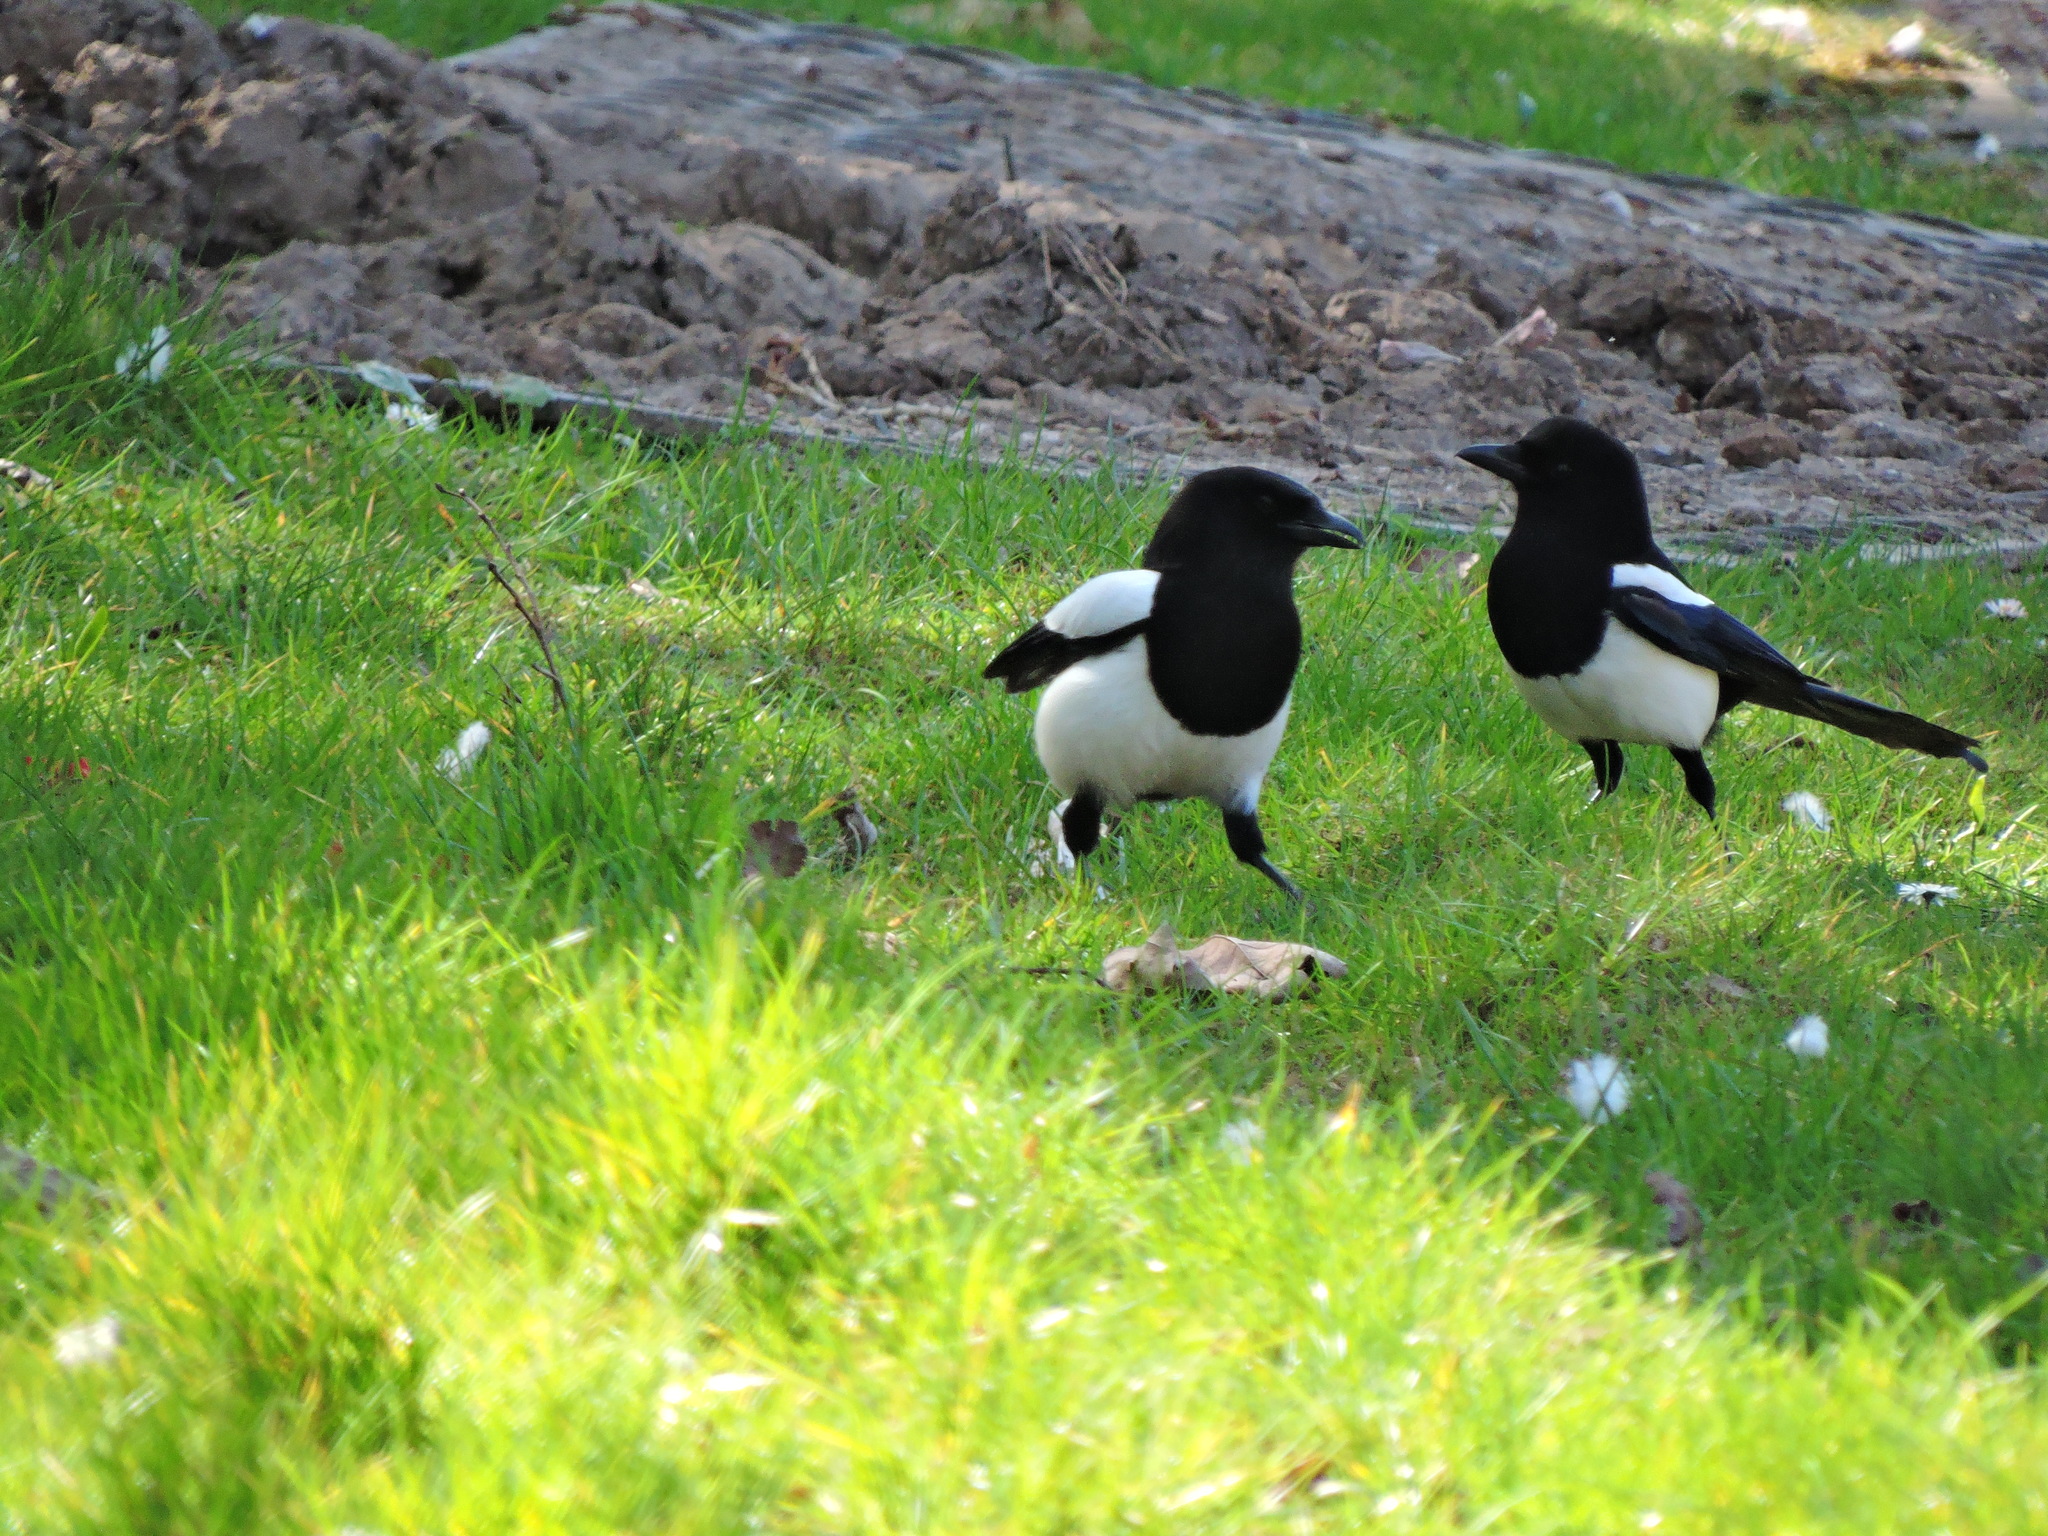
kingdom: Animalia
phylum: Chordata
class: Aves
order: Passeriformes
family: Corvidae
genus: Pica
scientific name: Pica pica
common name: Eurasian magpie
